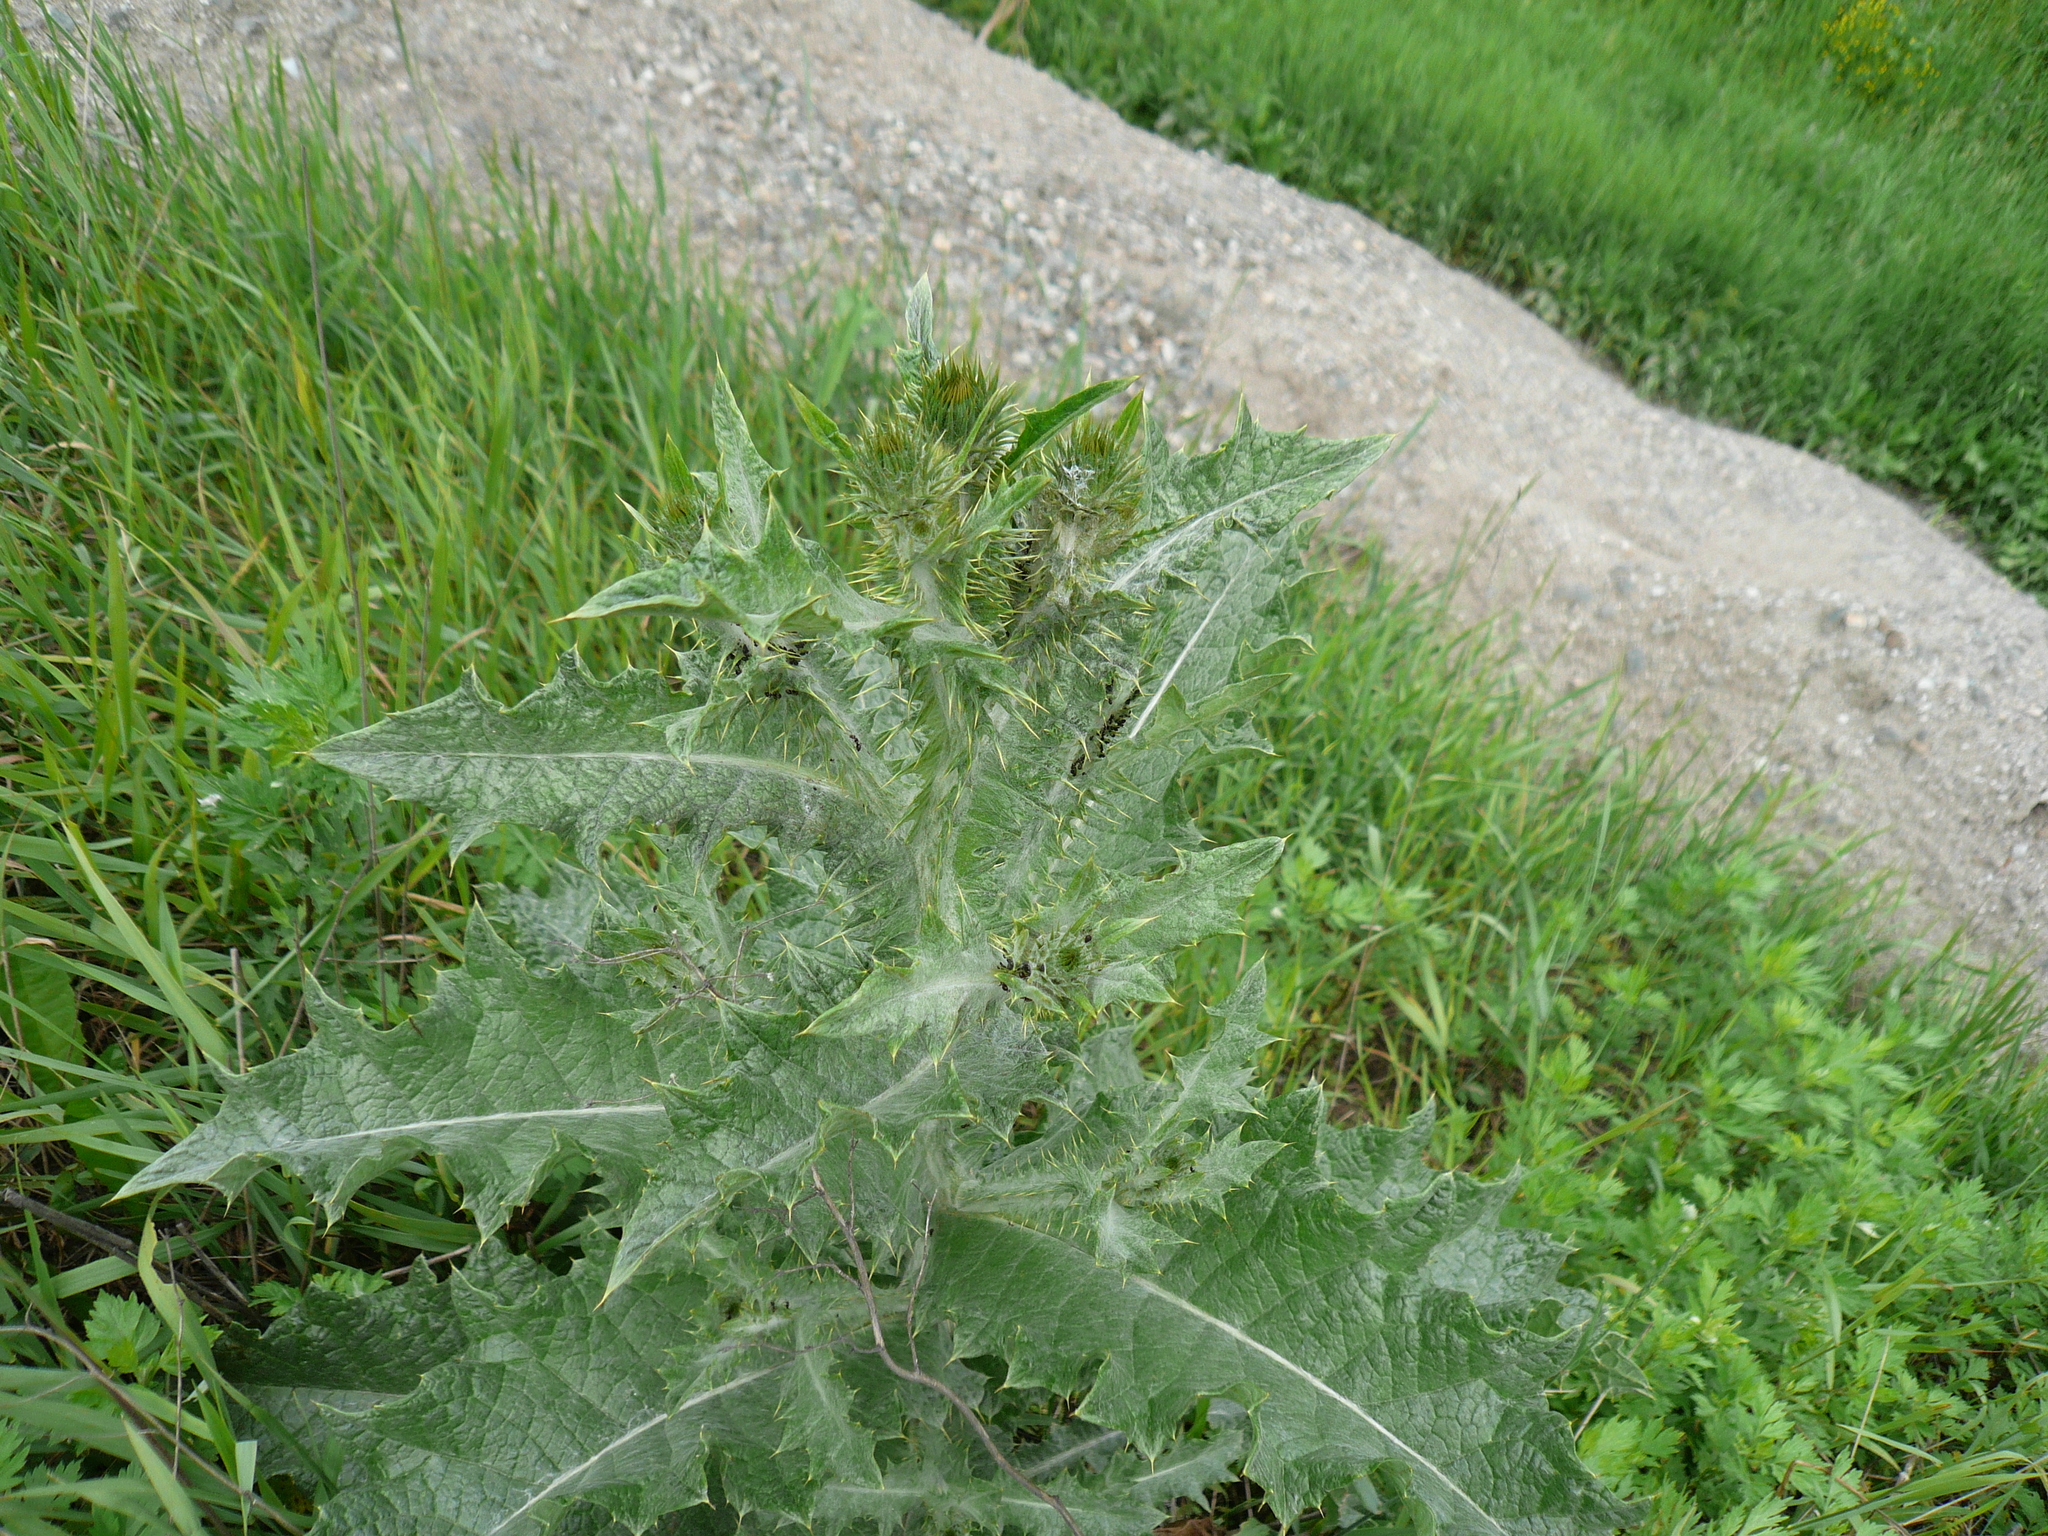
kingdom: Plantae
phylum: Tracheophyta
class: Magnoliopsida
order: Asterales
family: Asteraceae
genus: Onopordum
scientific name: Onopordum acanthium
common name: Scotch thistle
